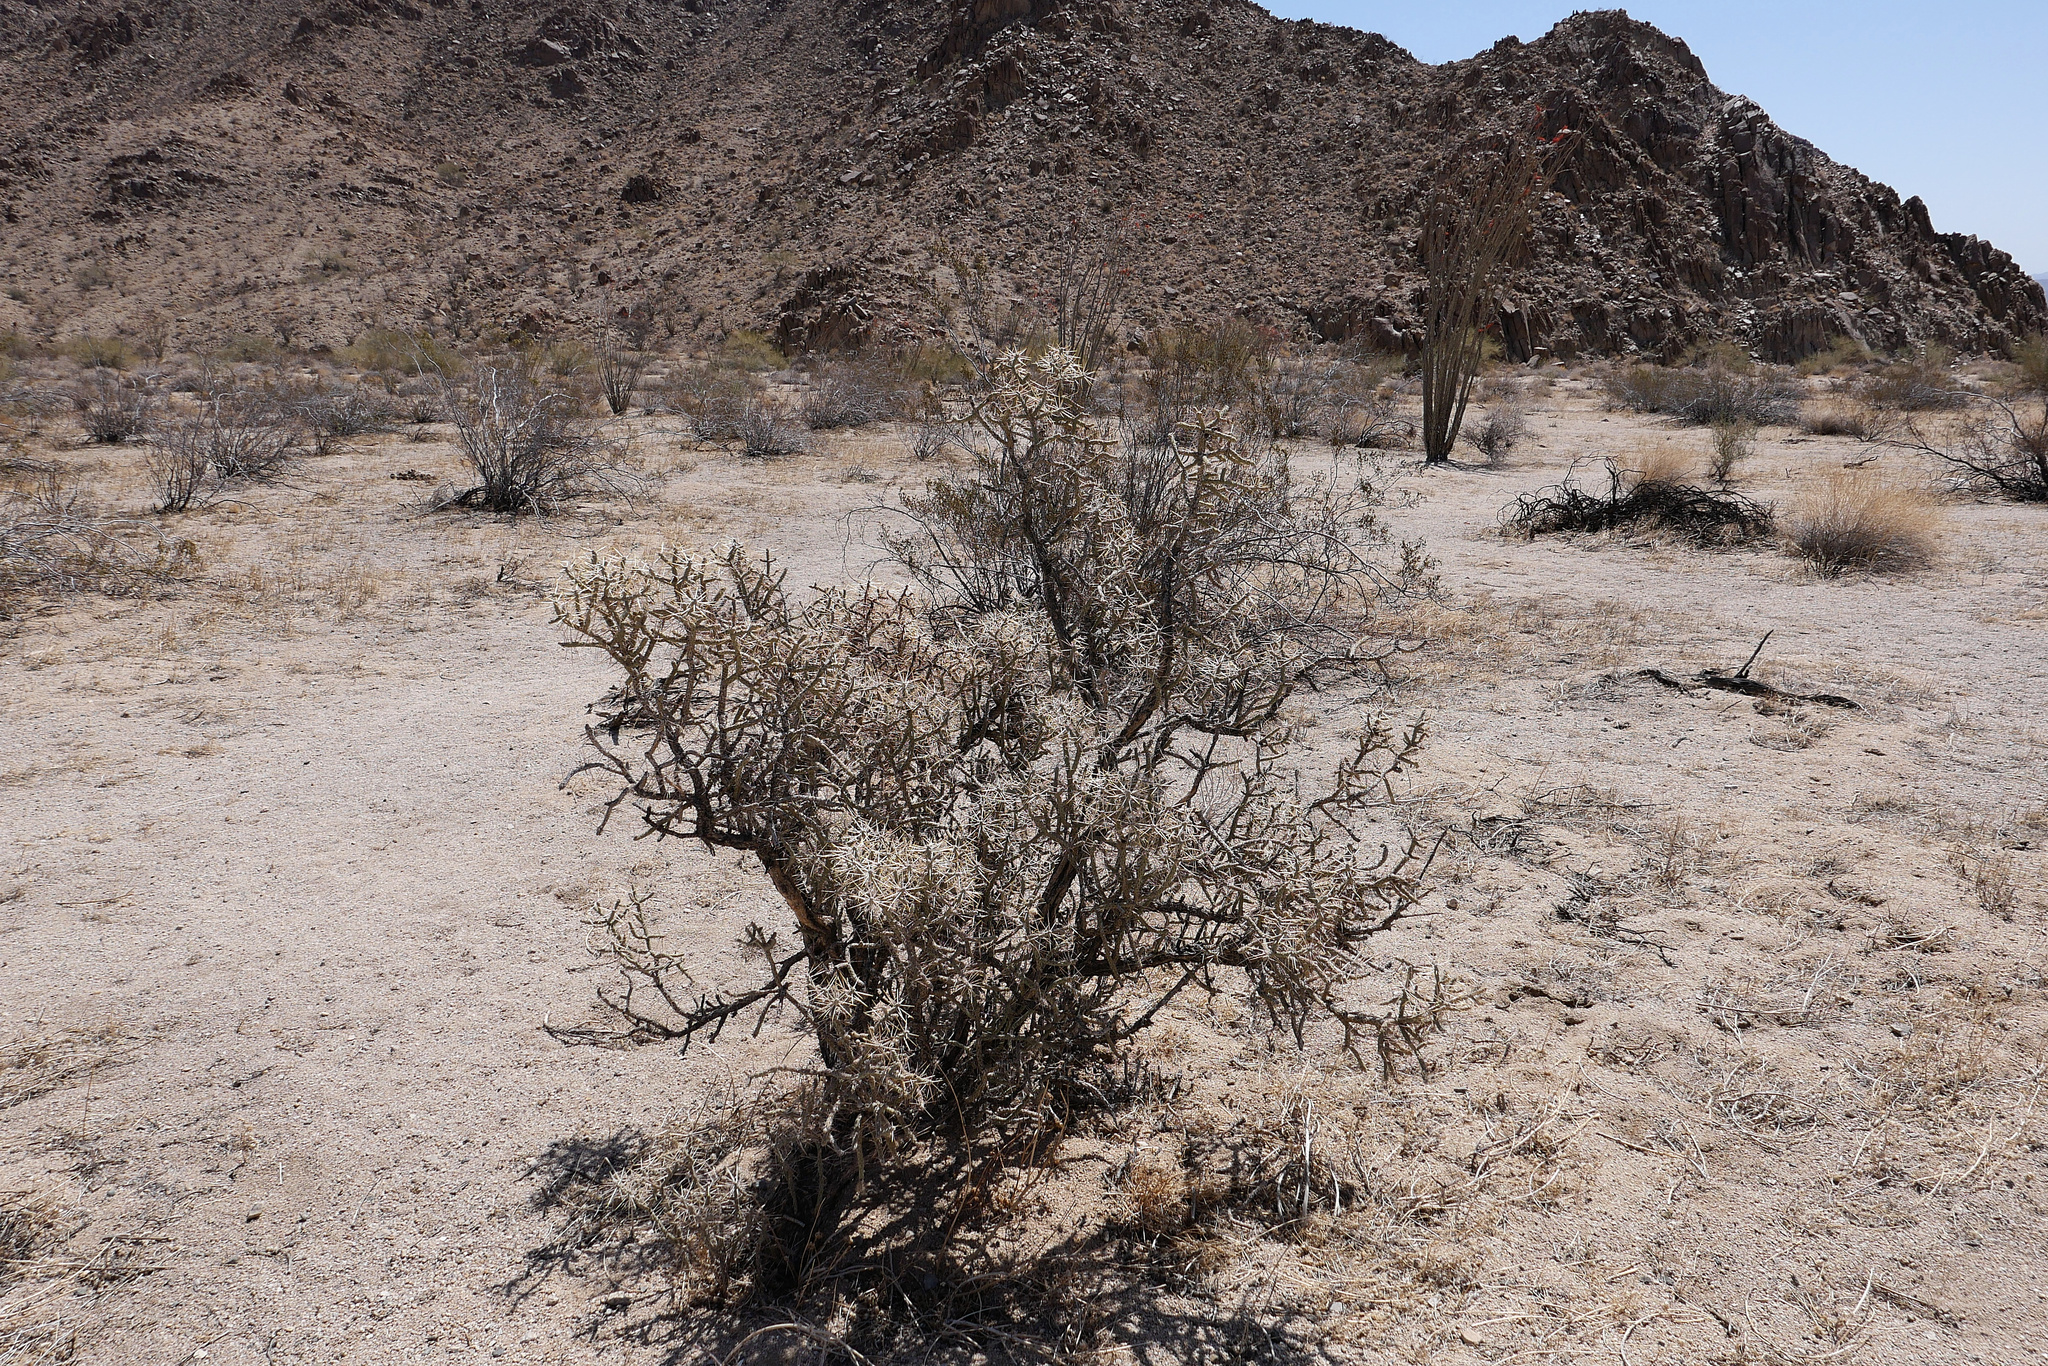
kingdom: Plantae
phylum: Tracheophyta
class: Magnoliopsida
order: Caryophyllales
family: Cactaceae
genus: Cylindropuntia
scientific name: Cylindropuntia ramosissima
